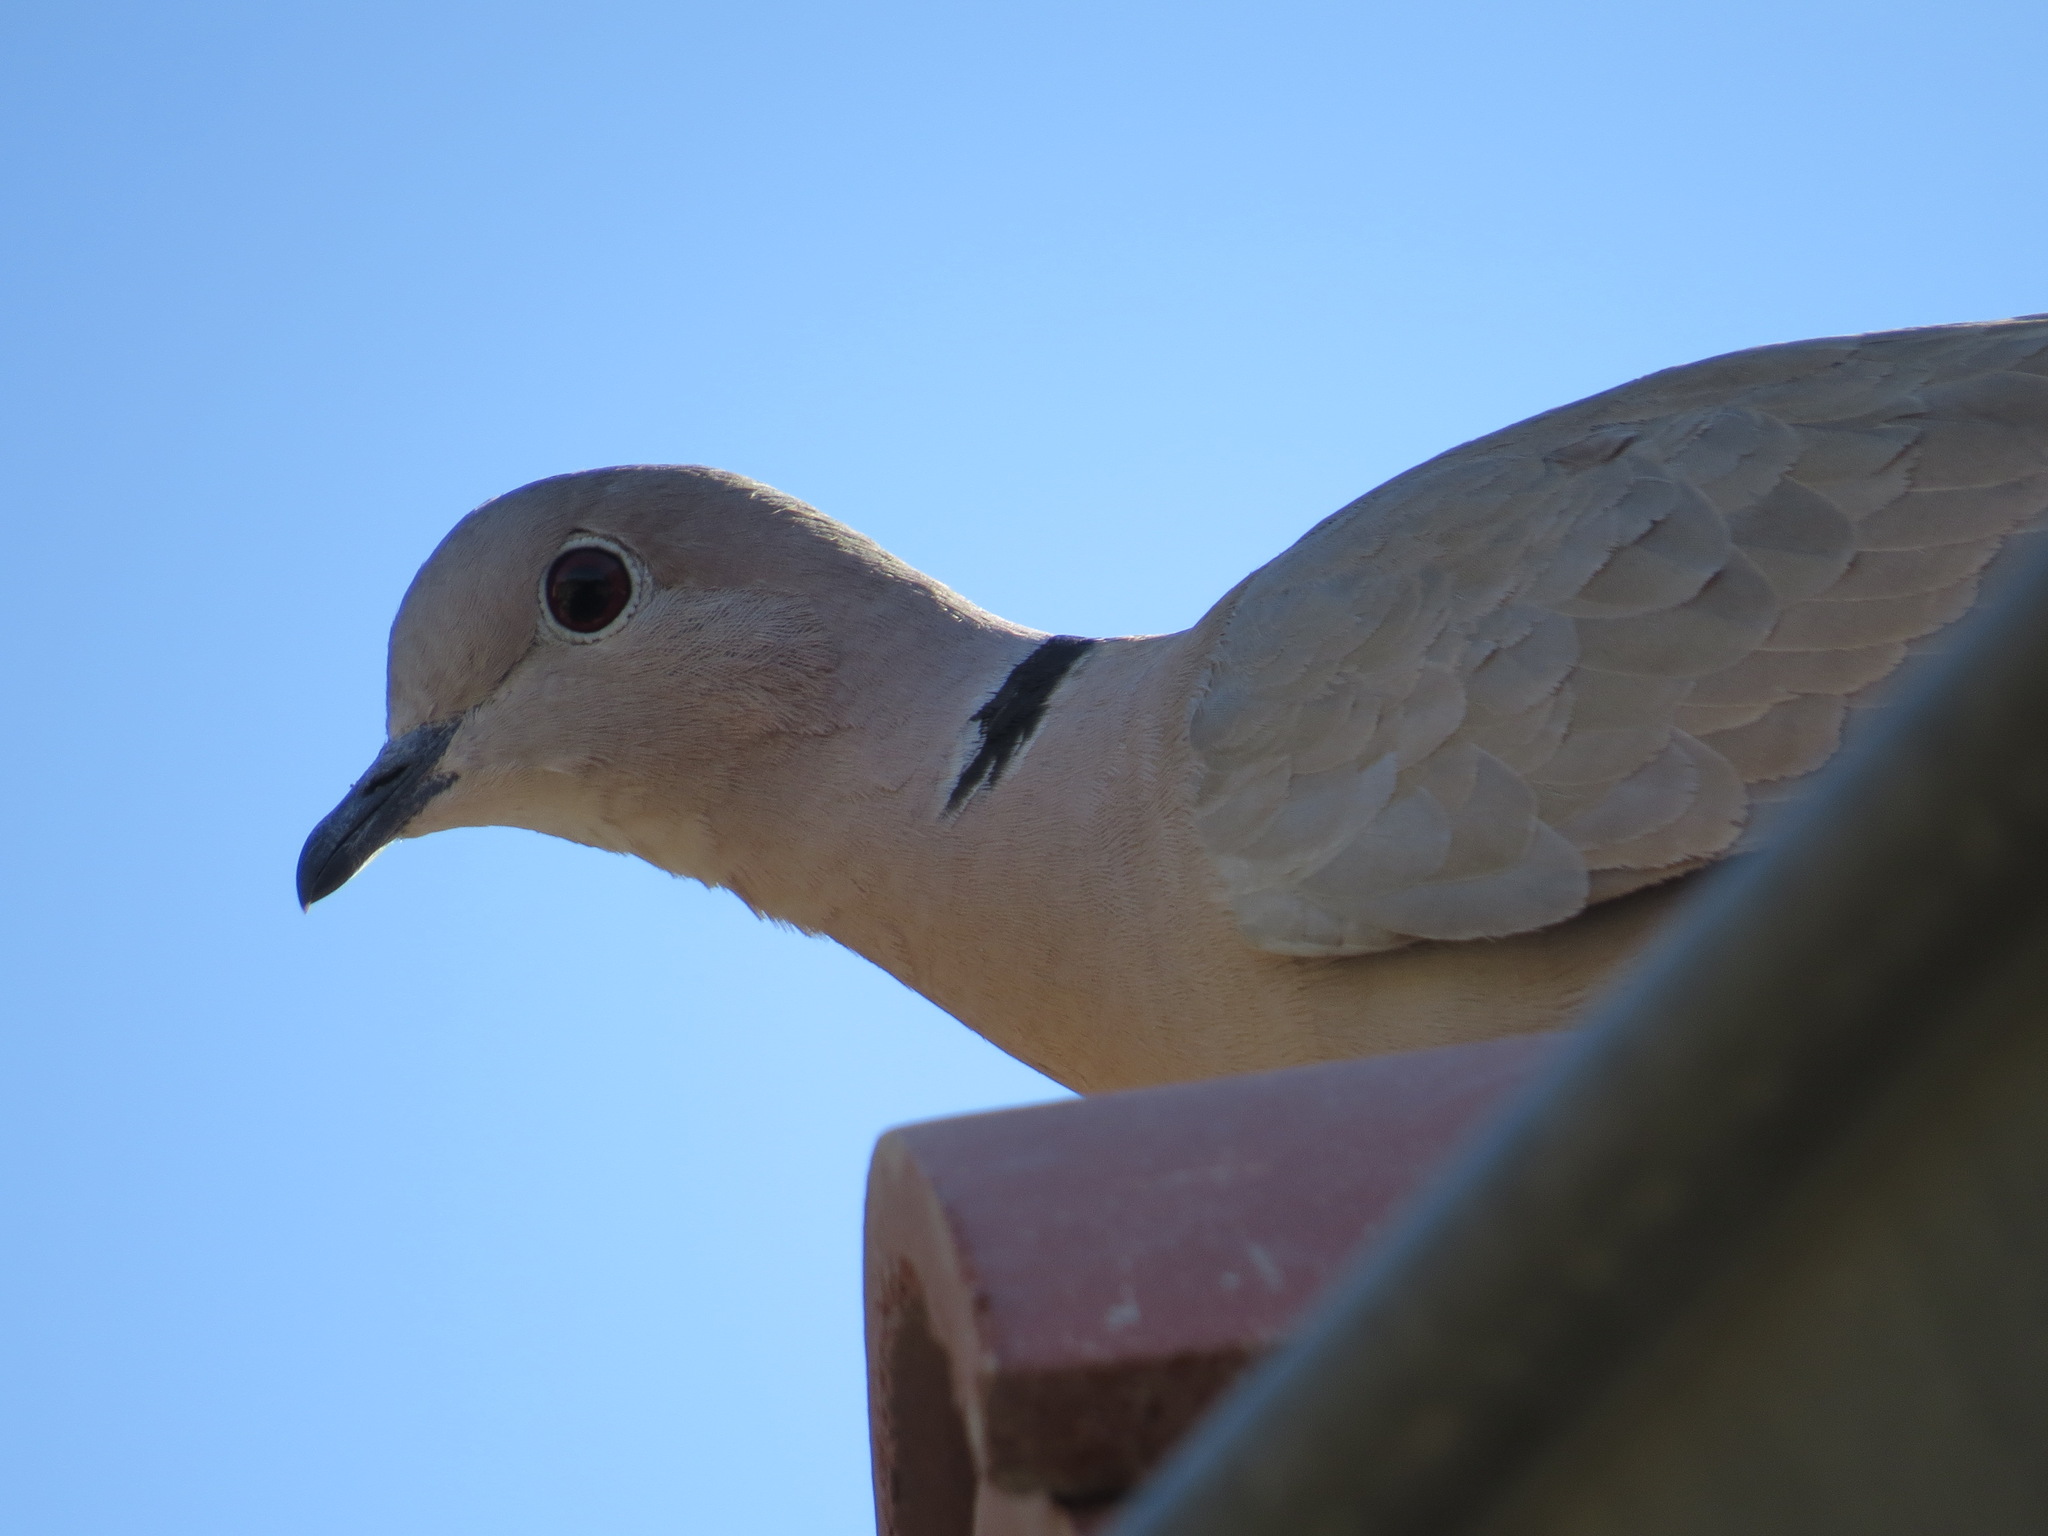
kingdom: Animalia
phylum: Chordata
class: Aves
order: Columbiformes
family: Columbidae
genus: Streptopelia
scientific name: Streptopelia decaocto
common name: Eurasian collared dove
